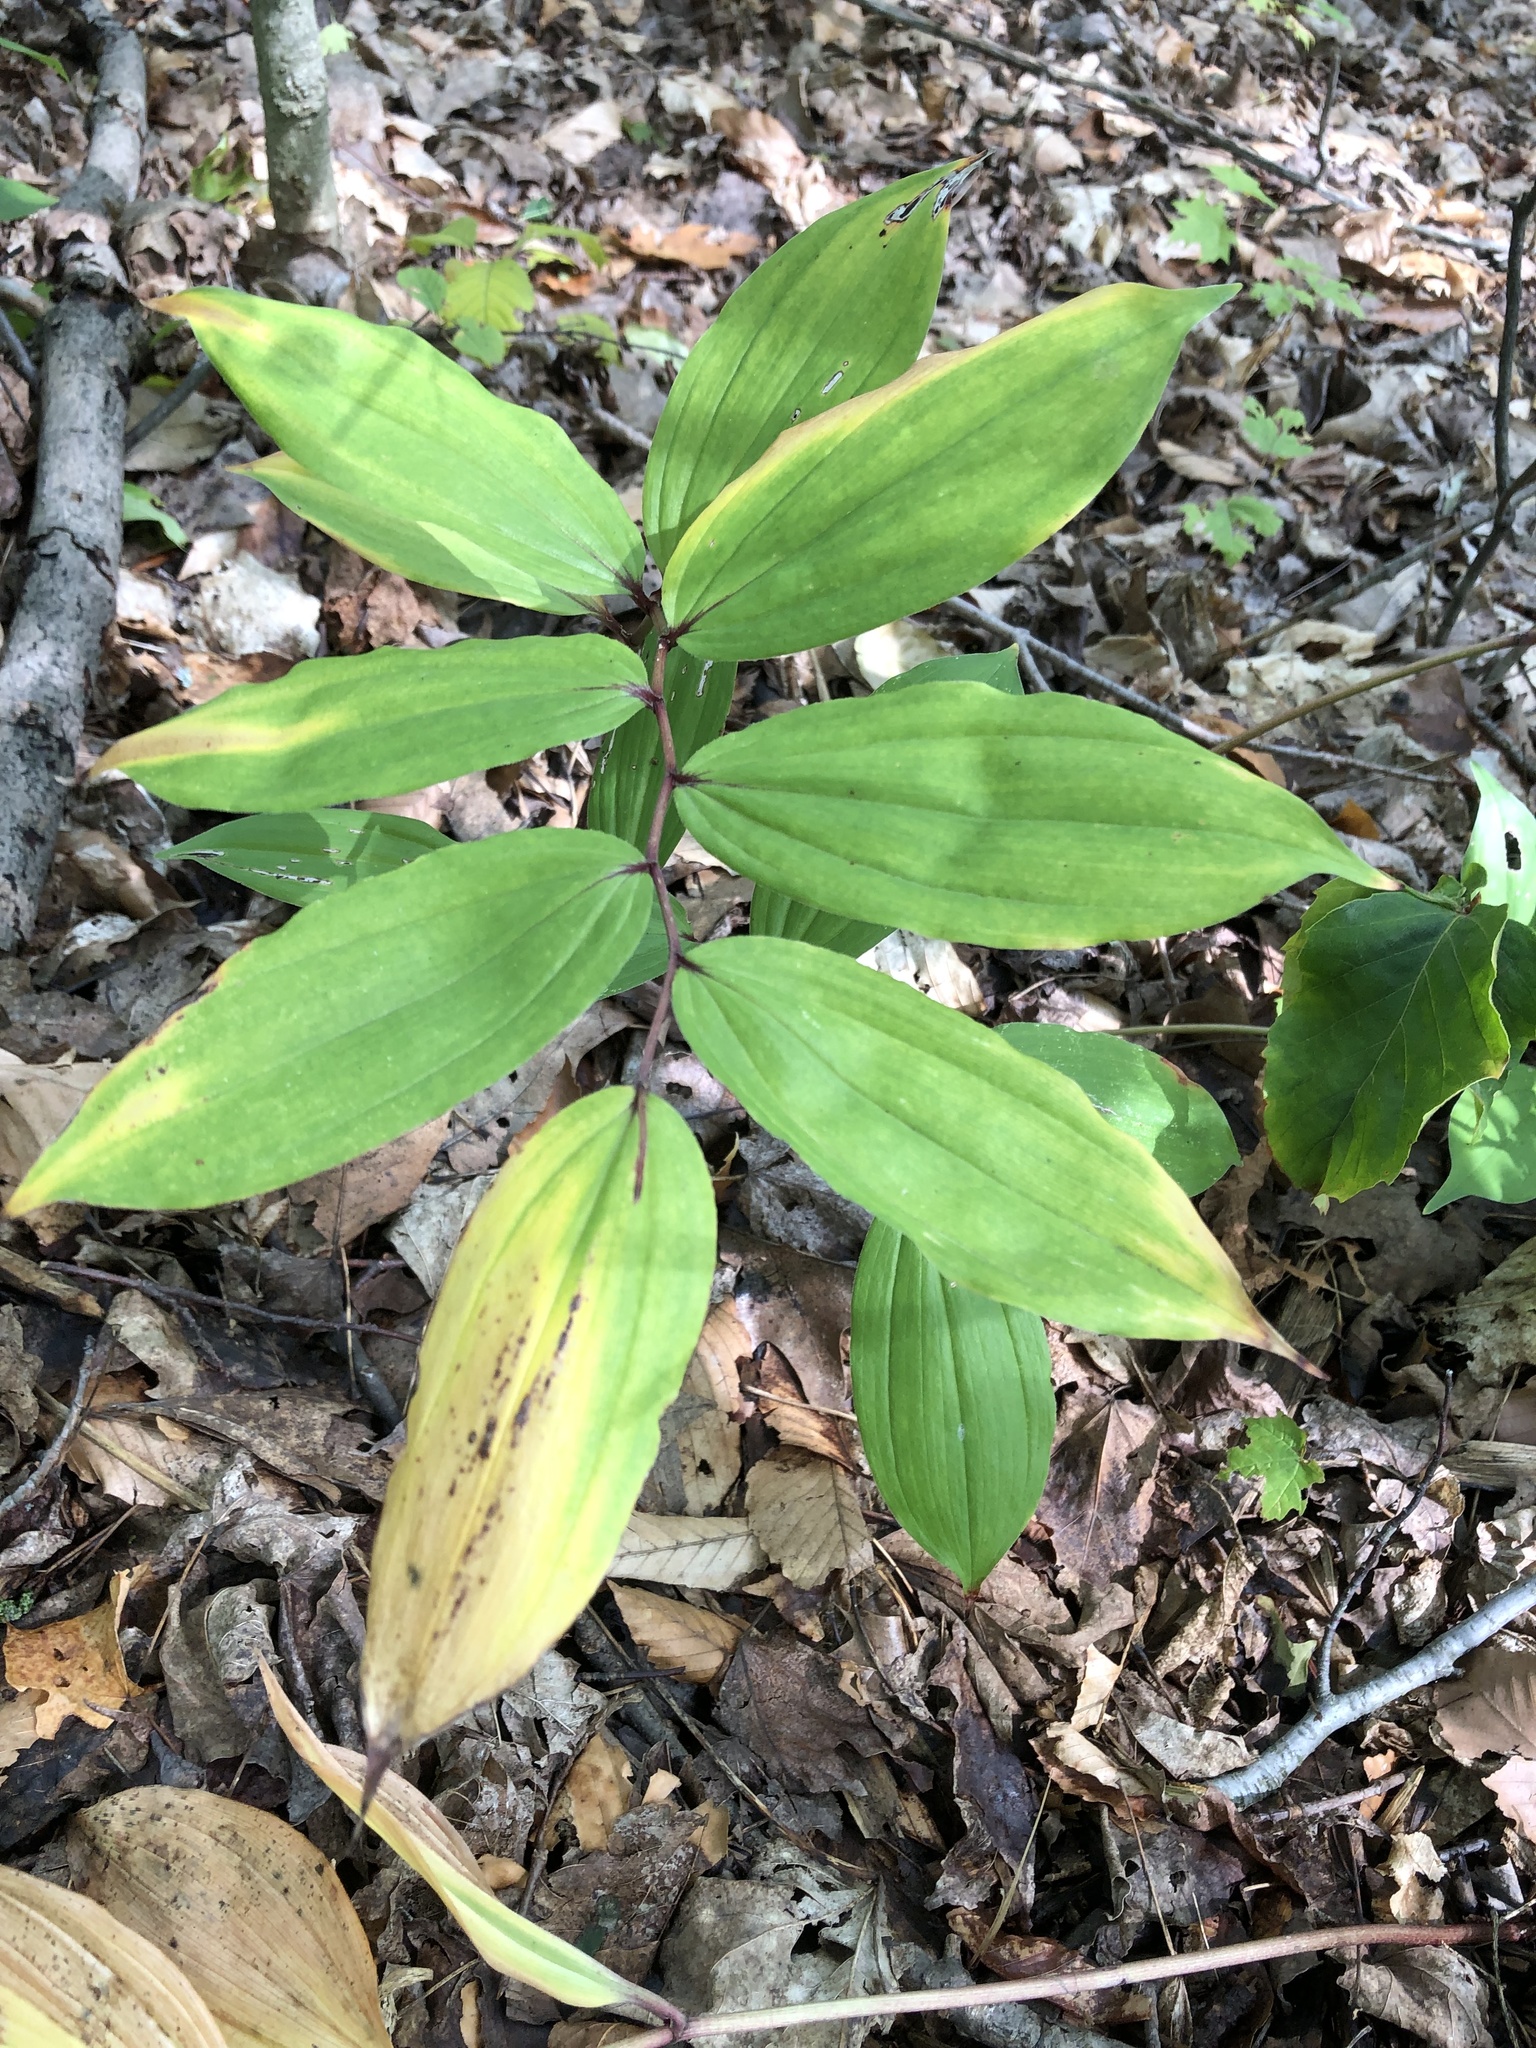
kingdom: Plantae
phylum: Tracheophyta
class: Liliopsida
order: Asparagales
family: Asparagaceae
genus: Maianthemum
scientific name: Maianthemum racemosum
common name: False spikenard
